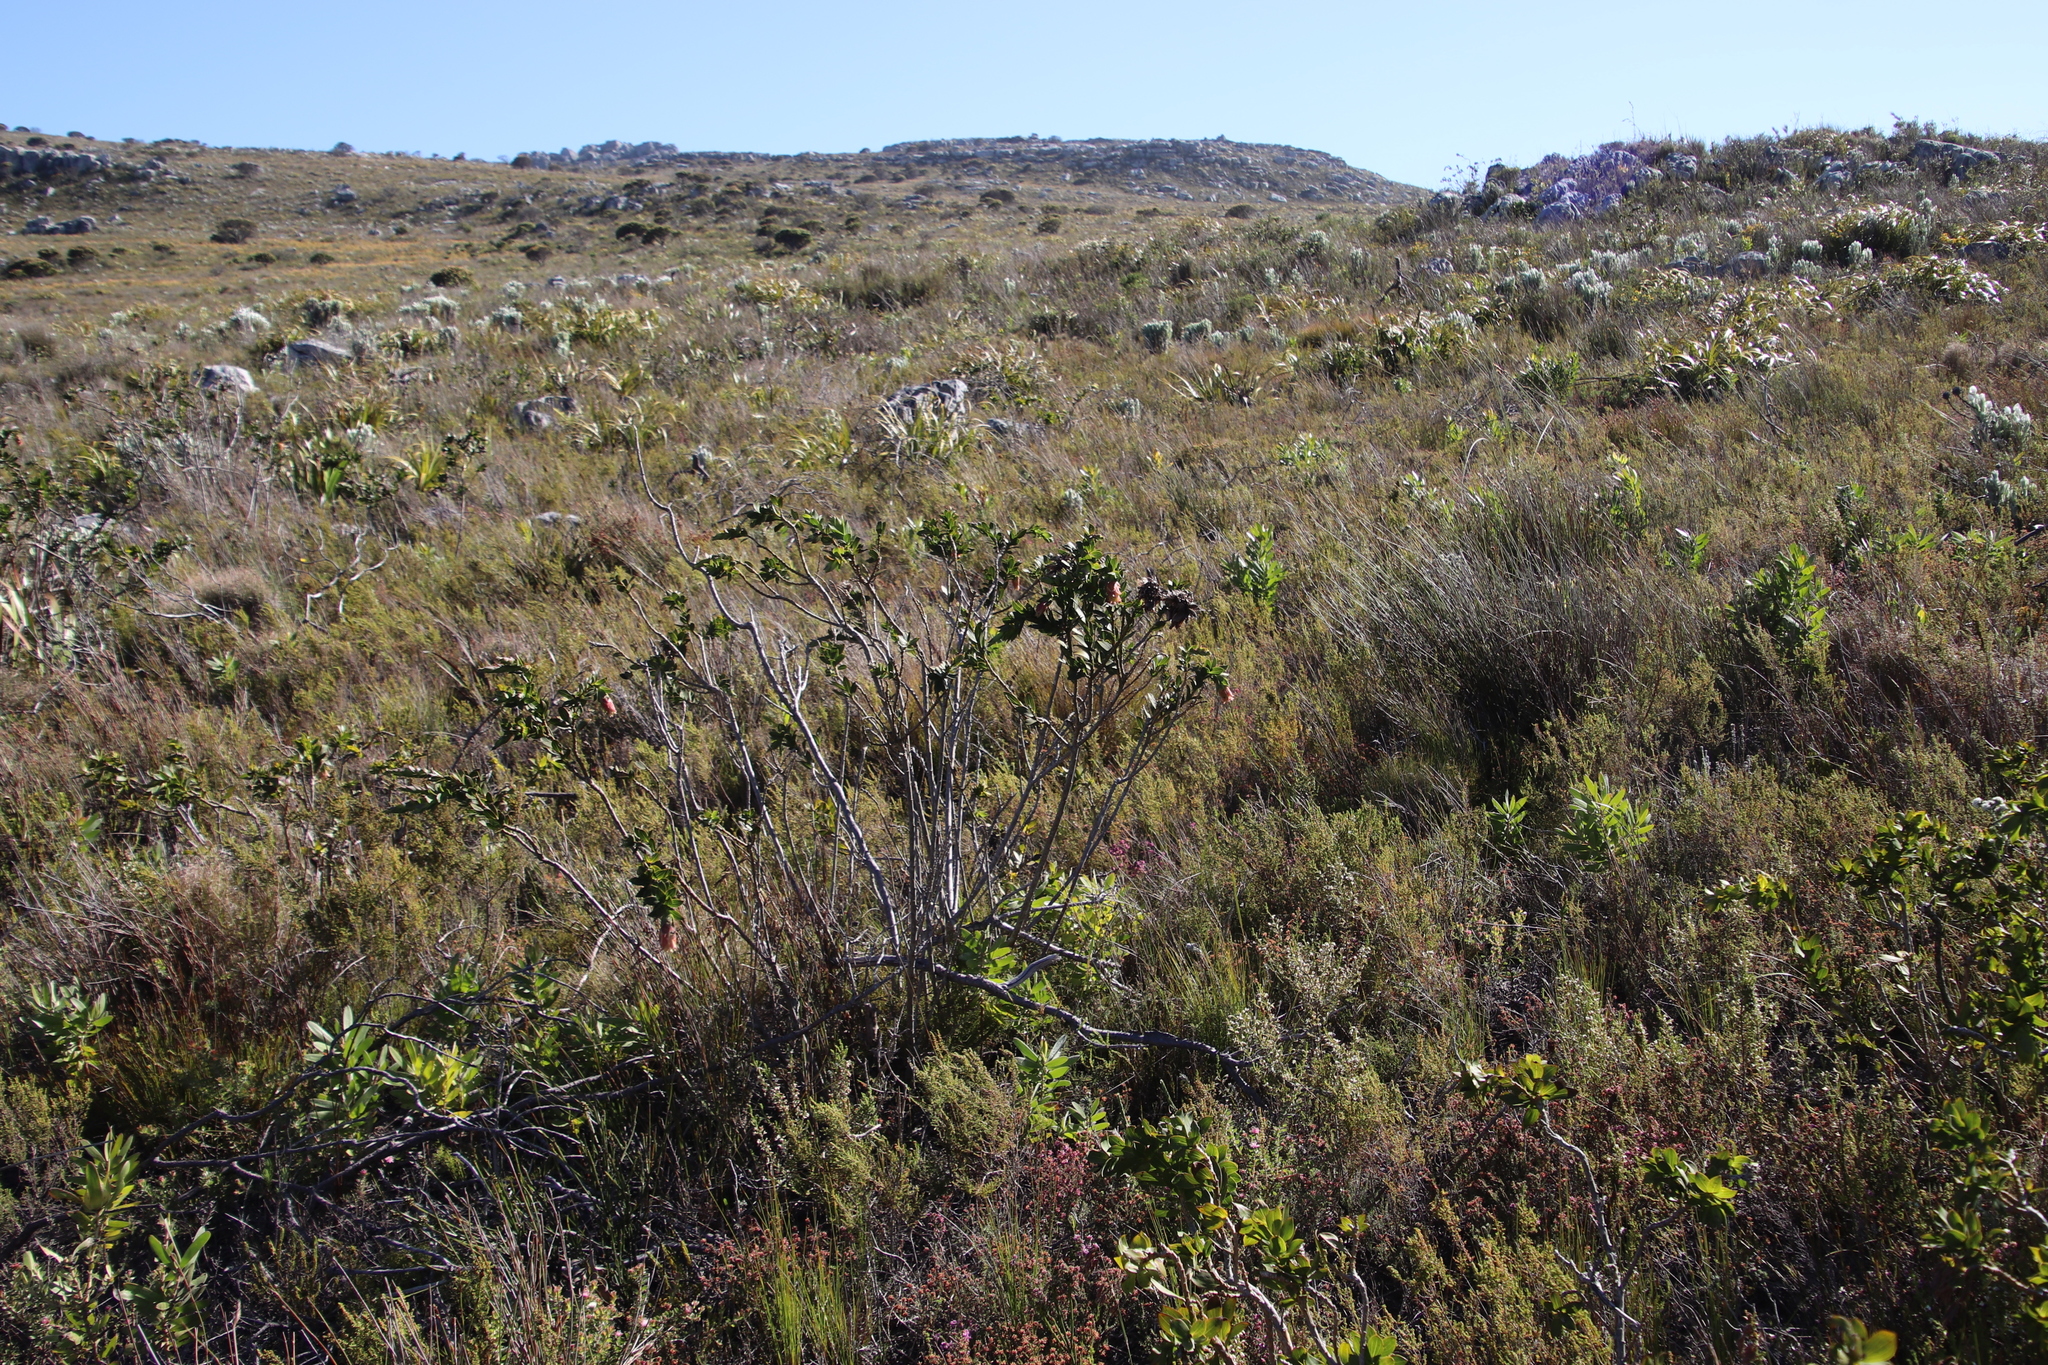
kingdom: Plantae
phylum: Tracheophyta
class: Magnoliopsida
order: Fabales
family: Fabaceae
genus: Liparia
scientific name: Liparia splendens
